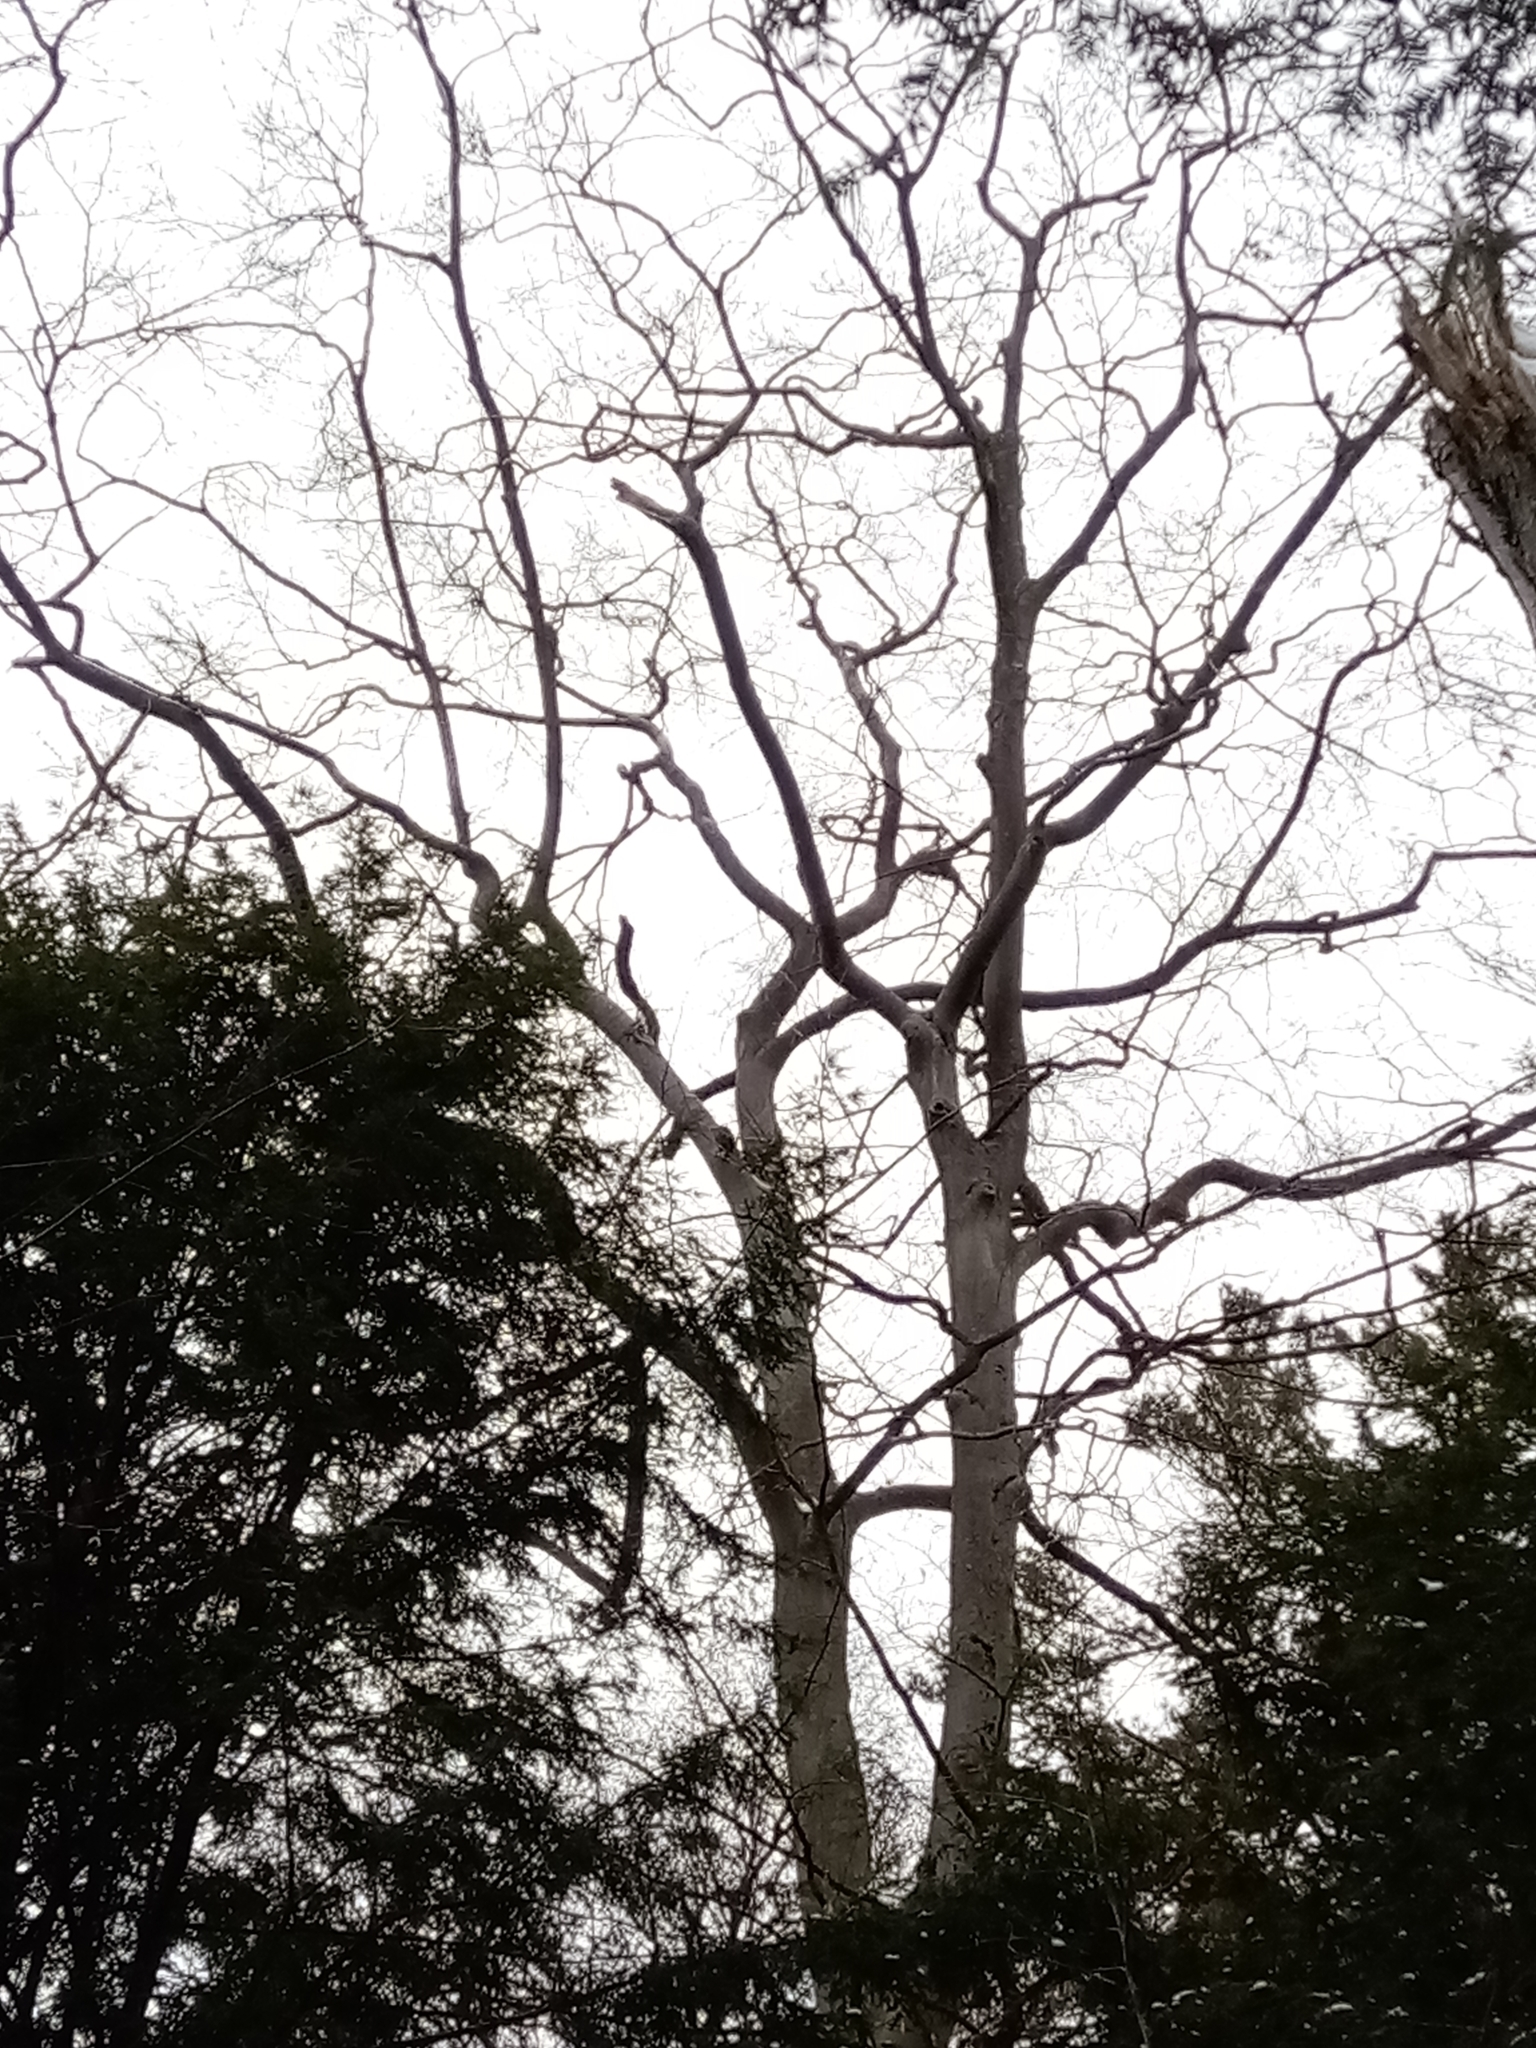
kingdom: Plantae
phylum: Tracheophyta
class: Magnoliopsida
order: Fagales
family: Fagaceae
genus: Fagus
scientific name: Fagus grandifolia
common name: American beech
